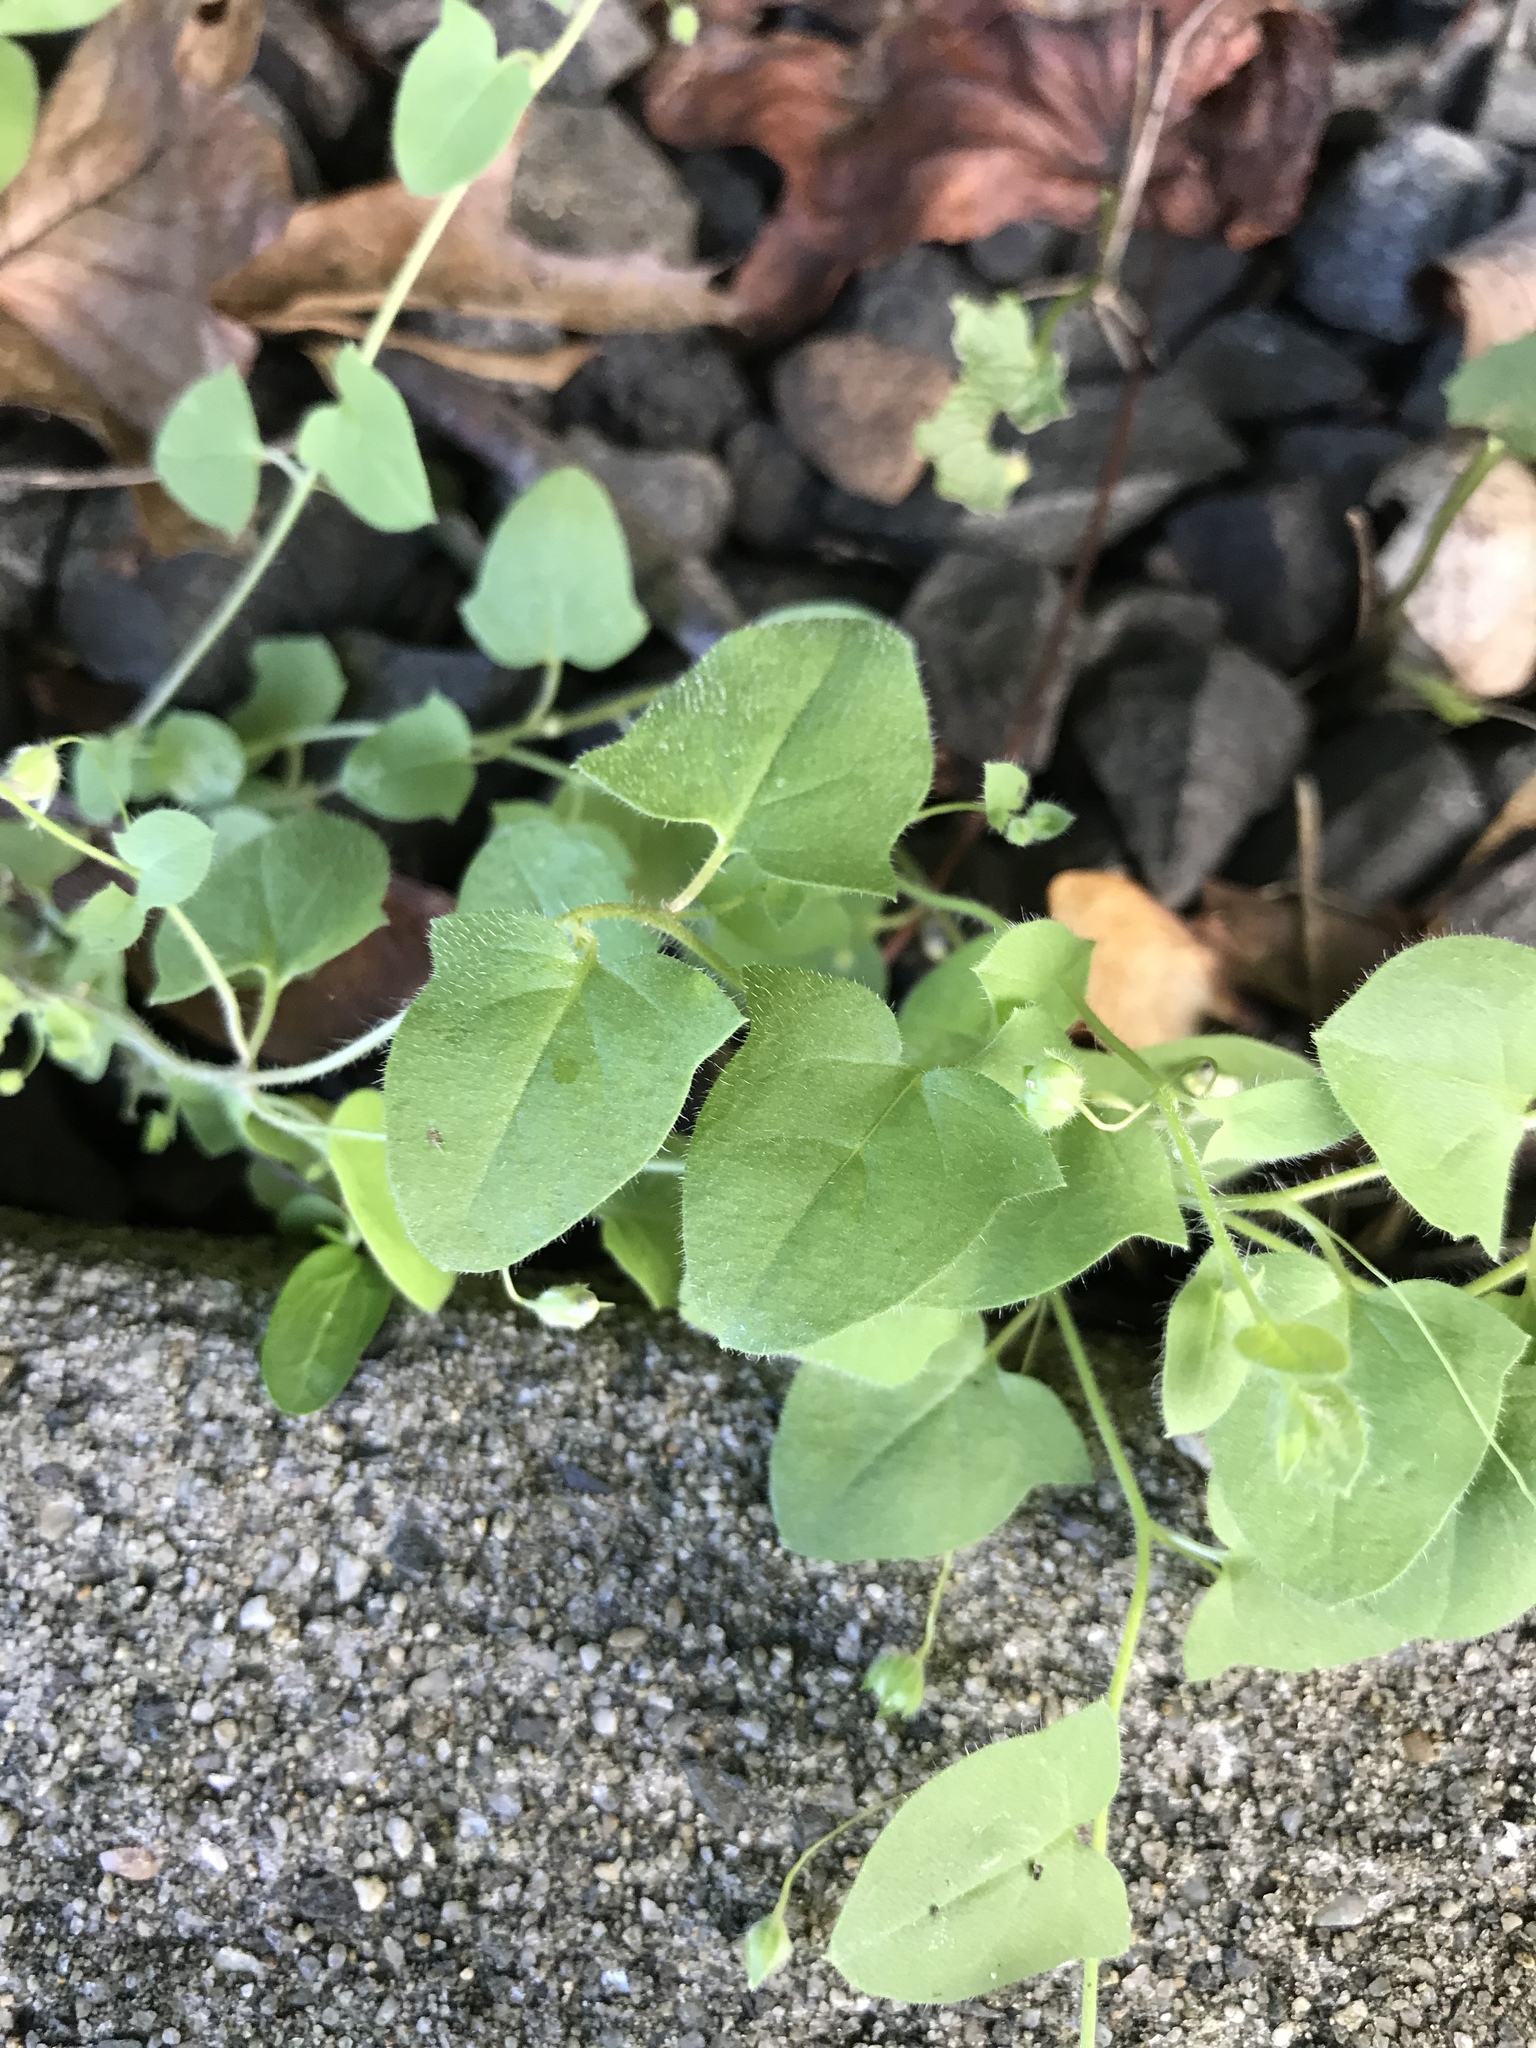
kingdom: Plantae
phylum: Tracheophyta
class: Magnoliopsida
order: Lamiales
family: Plantaginaceae
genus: Kickxia
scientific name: Kickxia elatine
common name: Sharp-leaved fluellen
